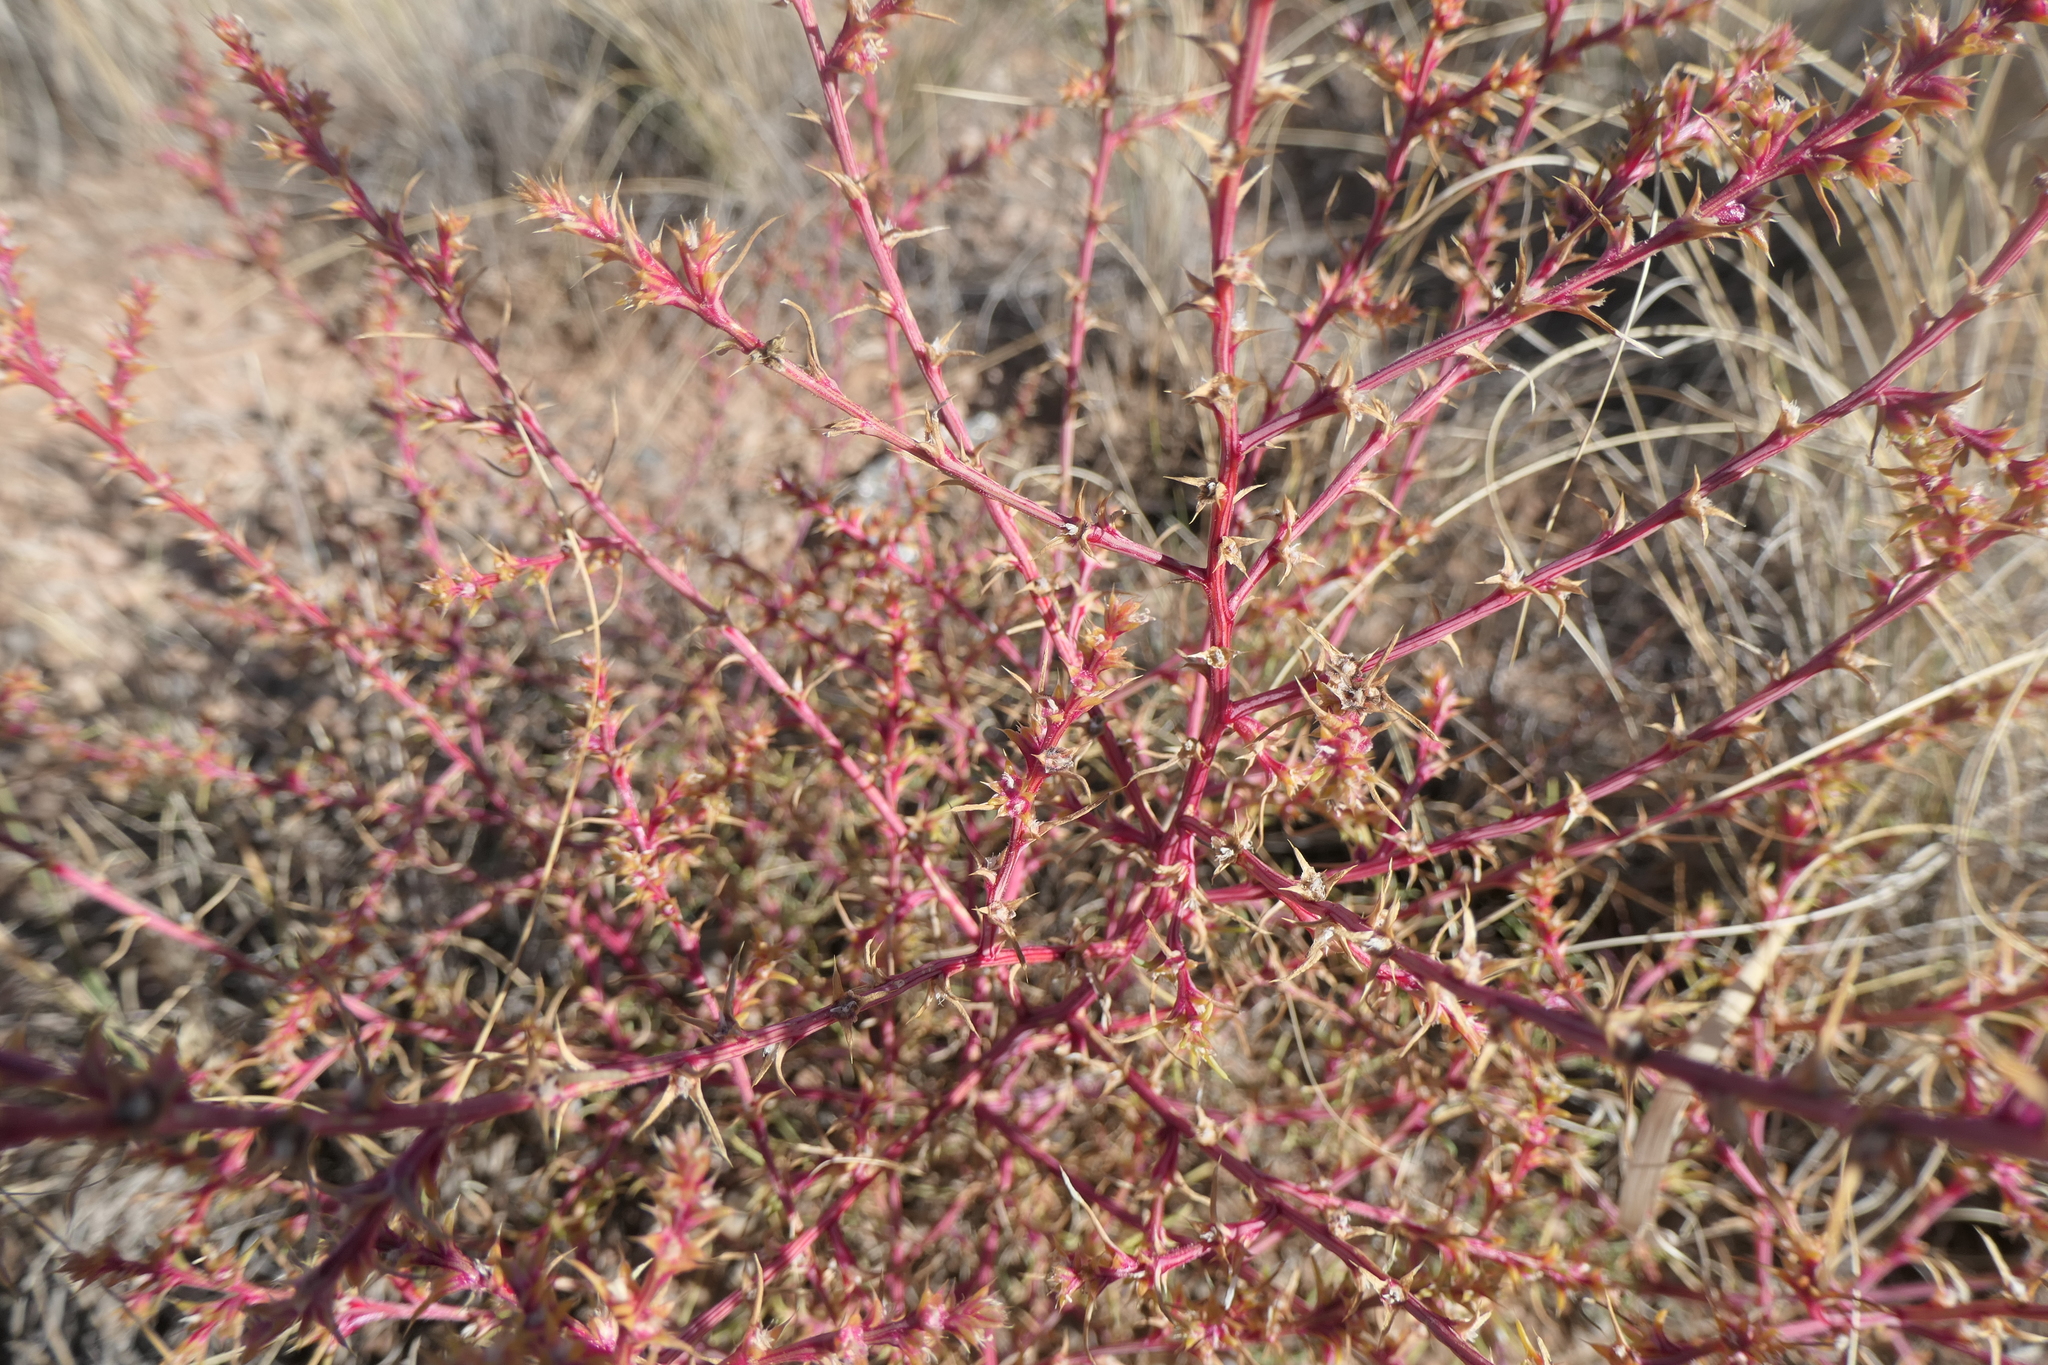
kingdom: Plantae
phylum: Tracheophyta
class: Magnoliopsida
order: Caryophyllales
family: Amaranthaceae
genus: Salsola
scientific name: Salsola tragus
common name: Prickly russian thistle
